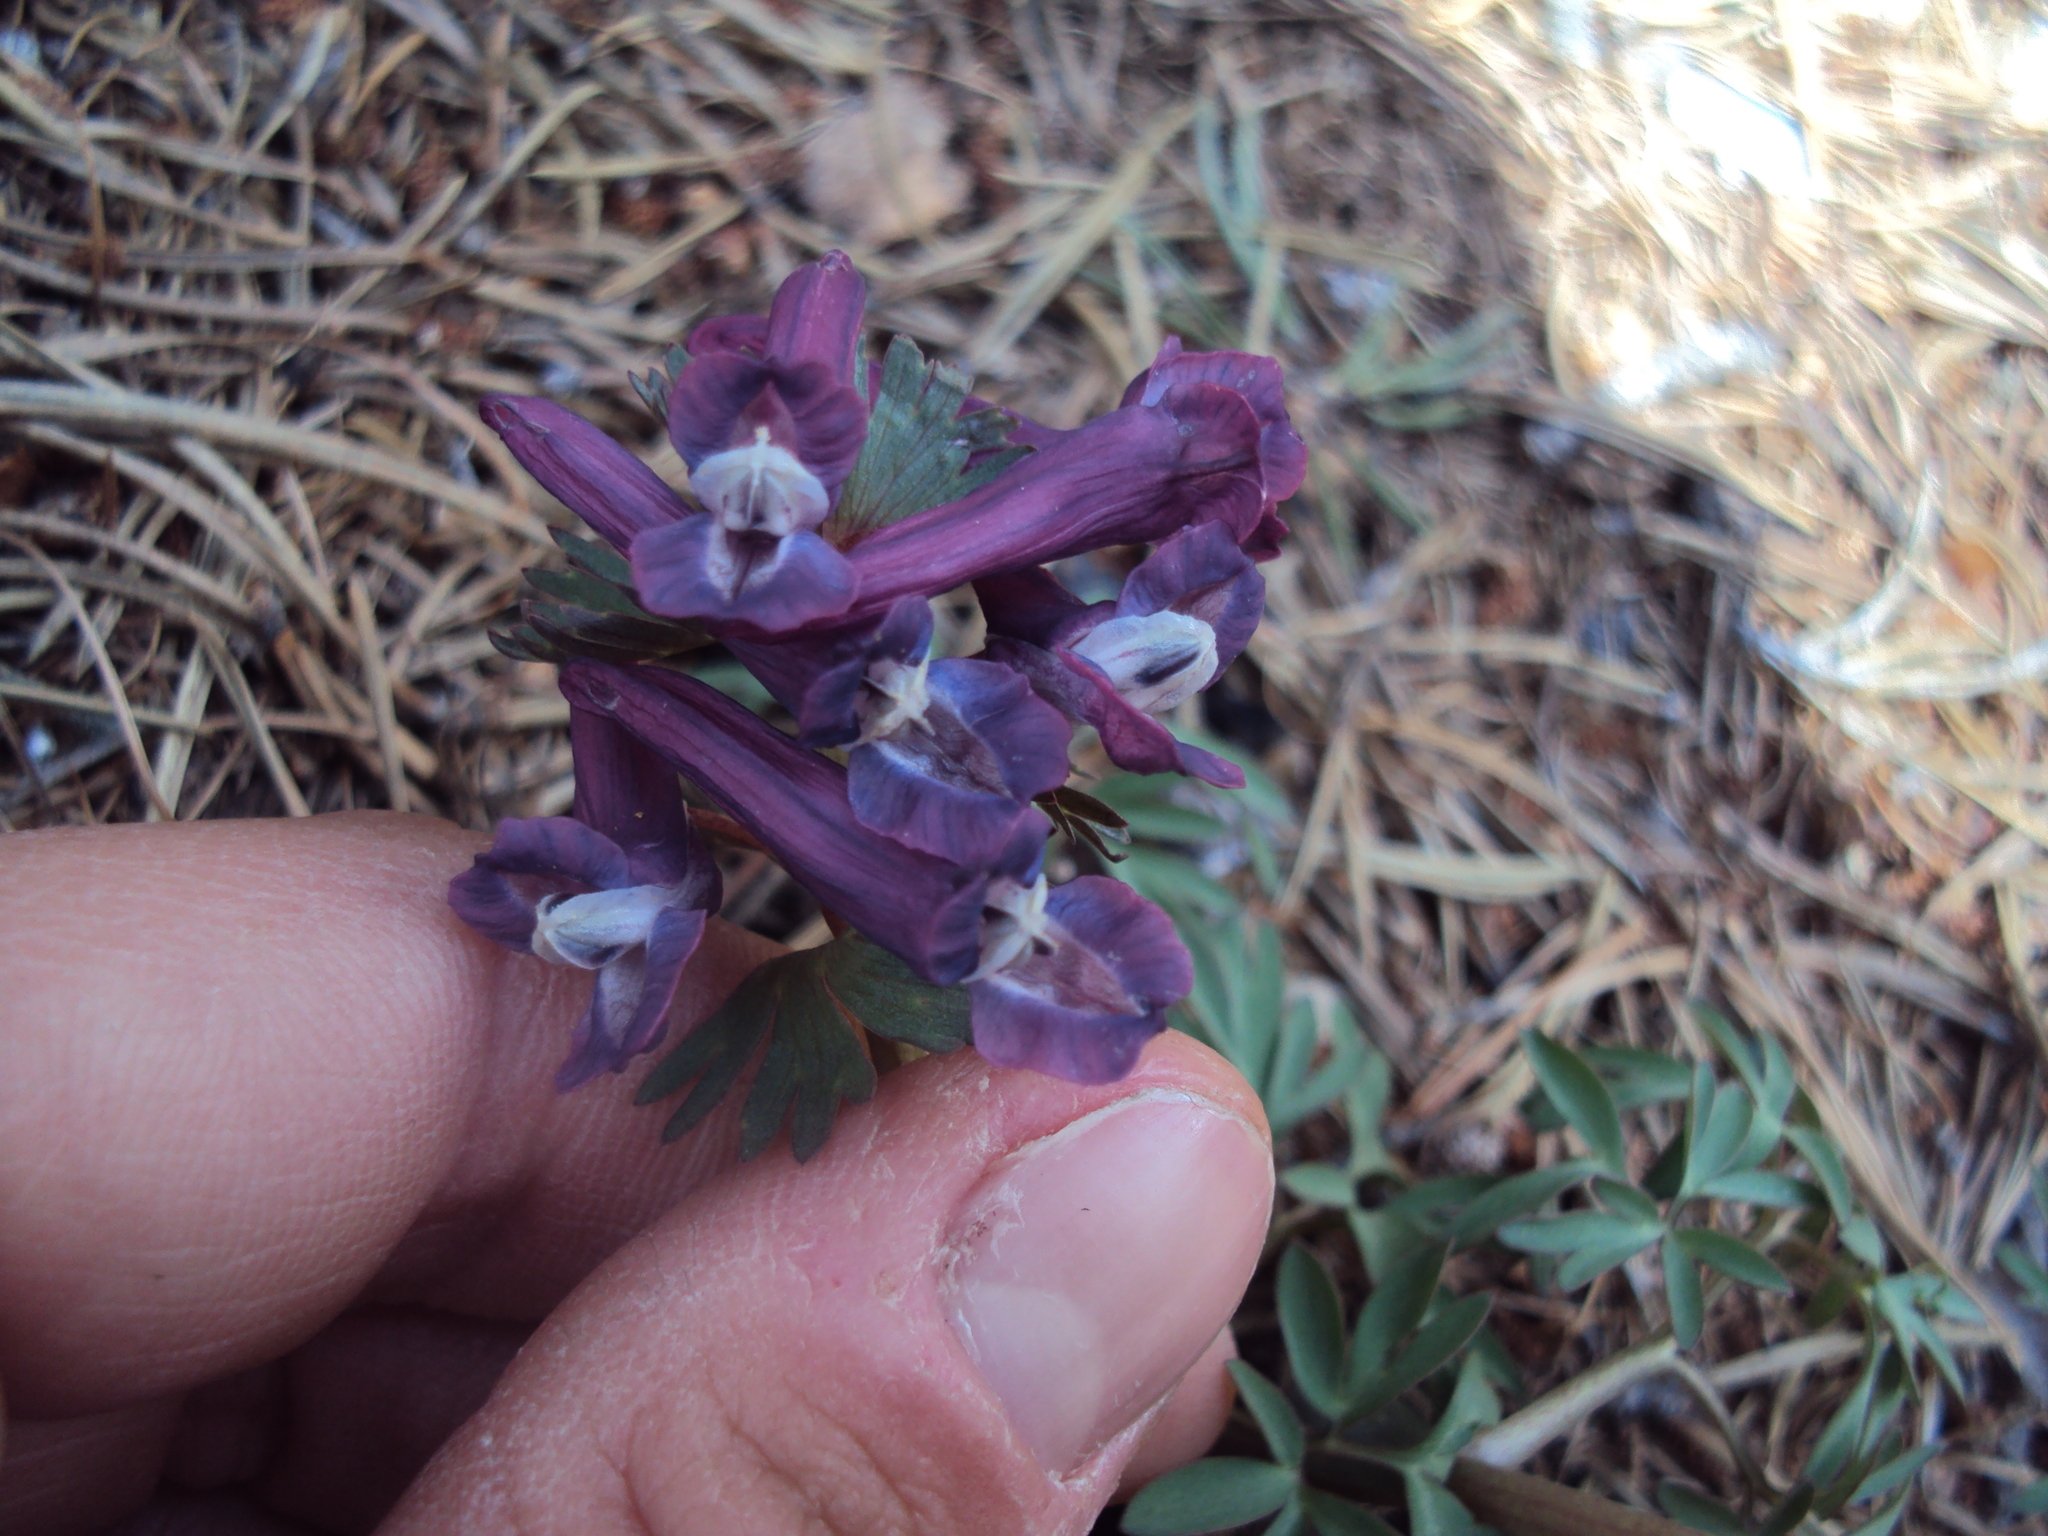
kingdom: Plantae
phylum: Tracheophyta
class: Magnoliopsida
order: Ranunculales
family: Papaveraceae
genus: Corydalis
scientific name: Corydalis solida
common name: Bird-in-a-bush
